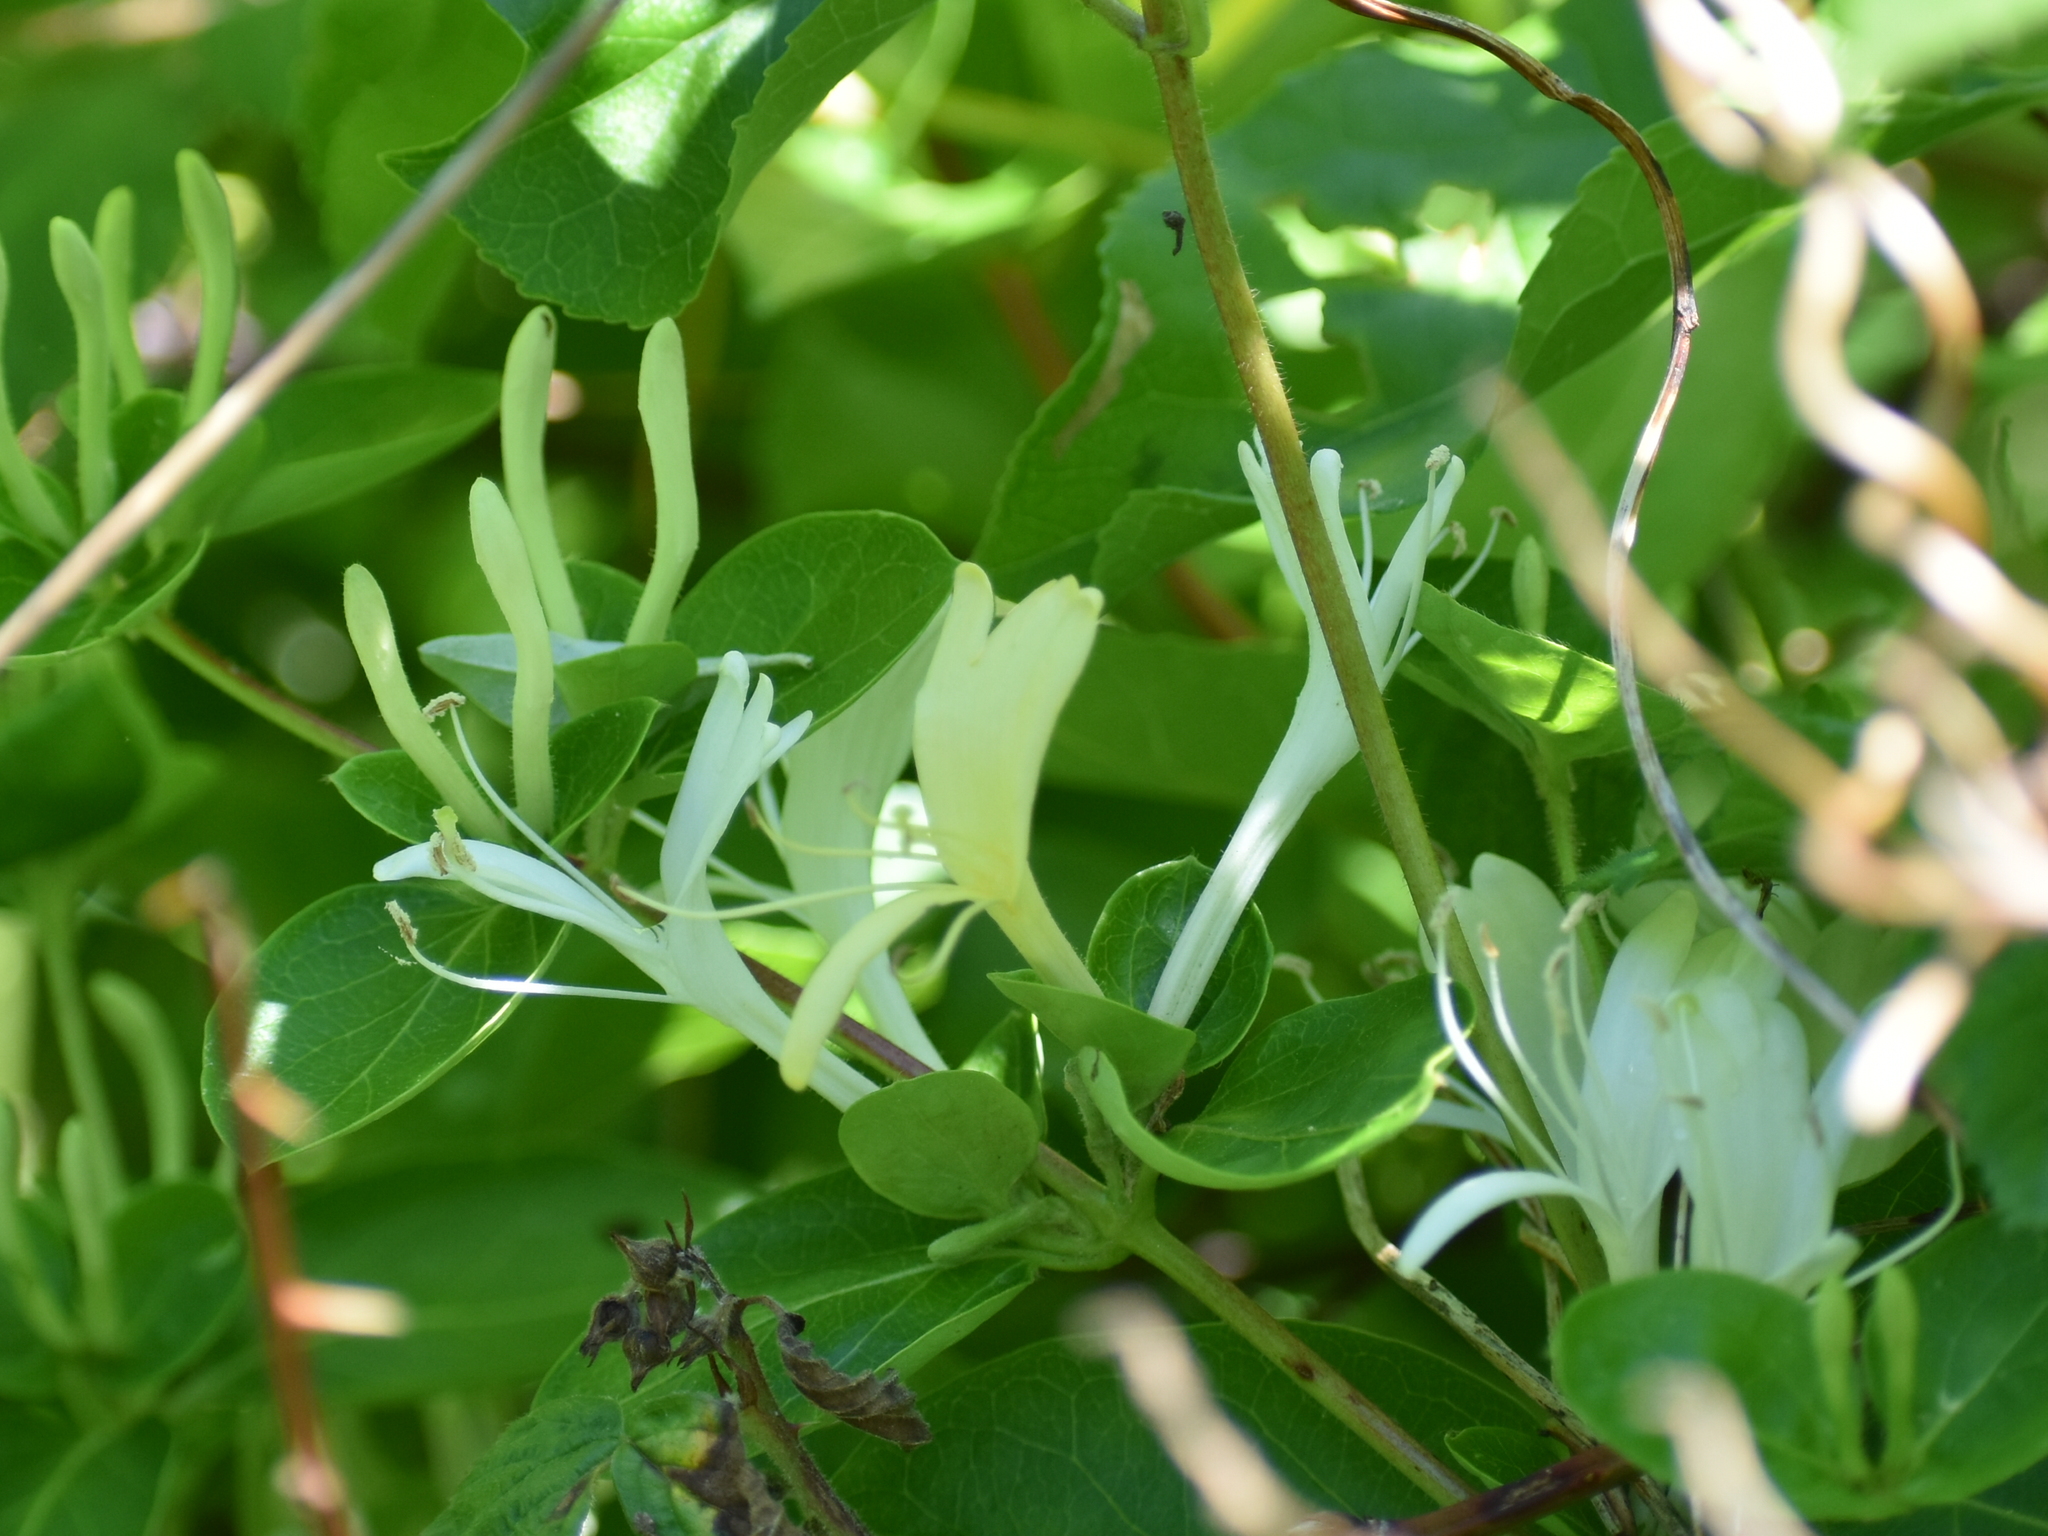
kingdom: Plantae
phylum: Tracheophyta
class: Magnoliopsida
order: Dipsacales
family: Caprifoliaceae
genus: Lonicera
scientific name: Lonicera japonica
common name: Japanese honeysuckle
